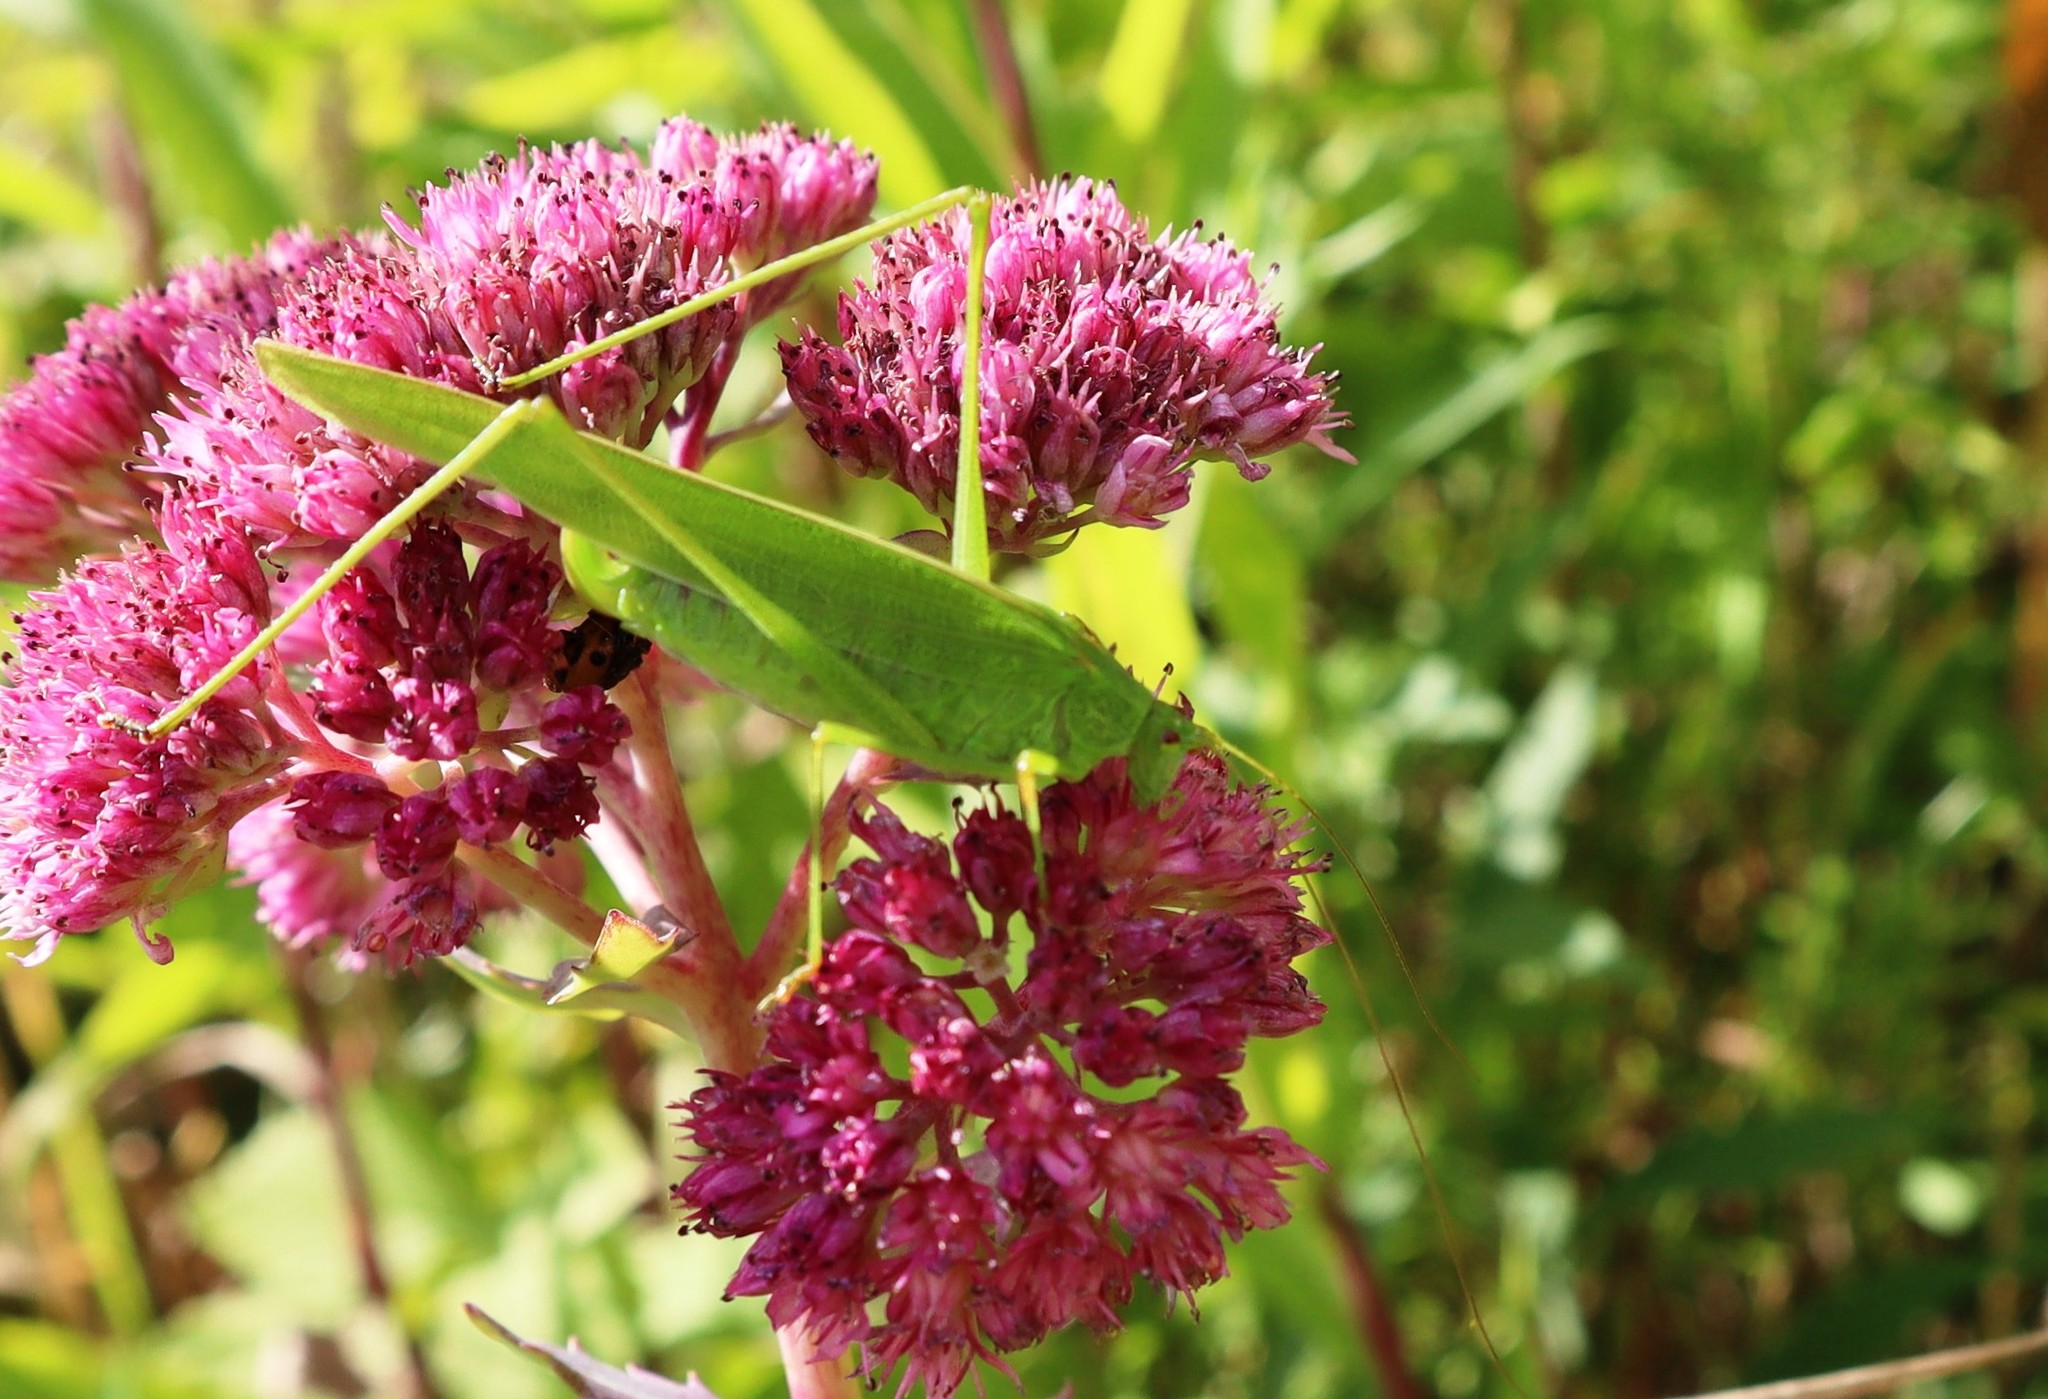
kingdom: Animalia
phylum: Arthropoda
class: Insecta
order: Orthoptera
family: Tettigoniidae
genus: Phaneroptera
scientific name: Phaneroptera falcata
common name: Sickle-bearing bush-cricket
